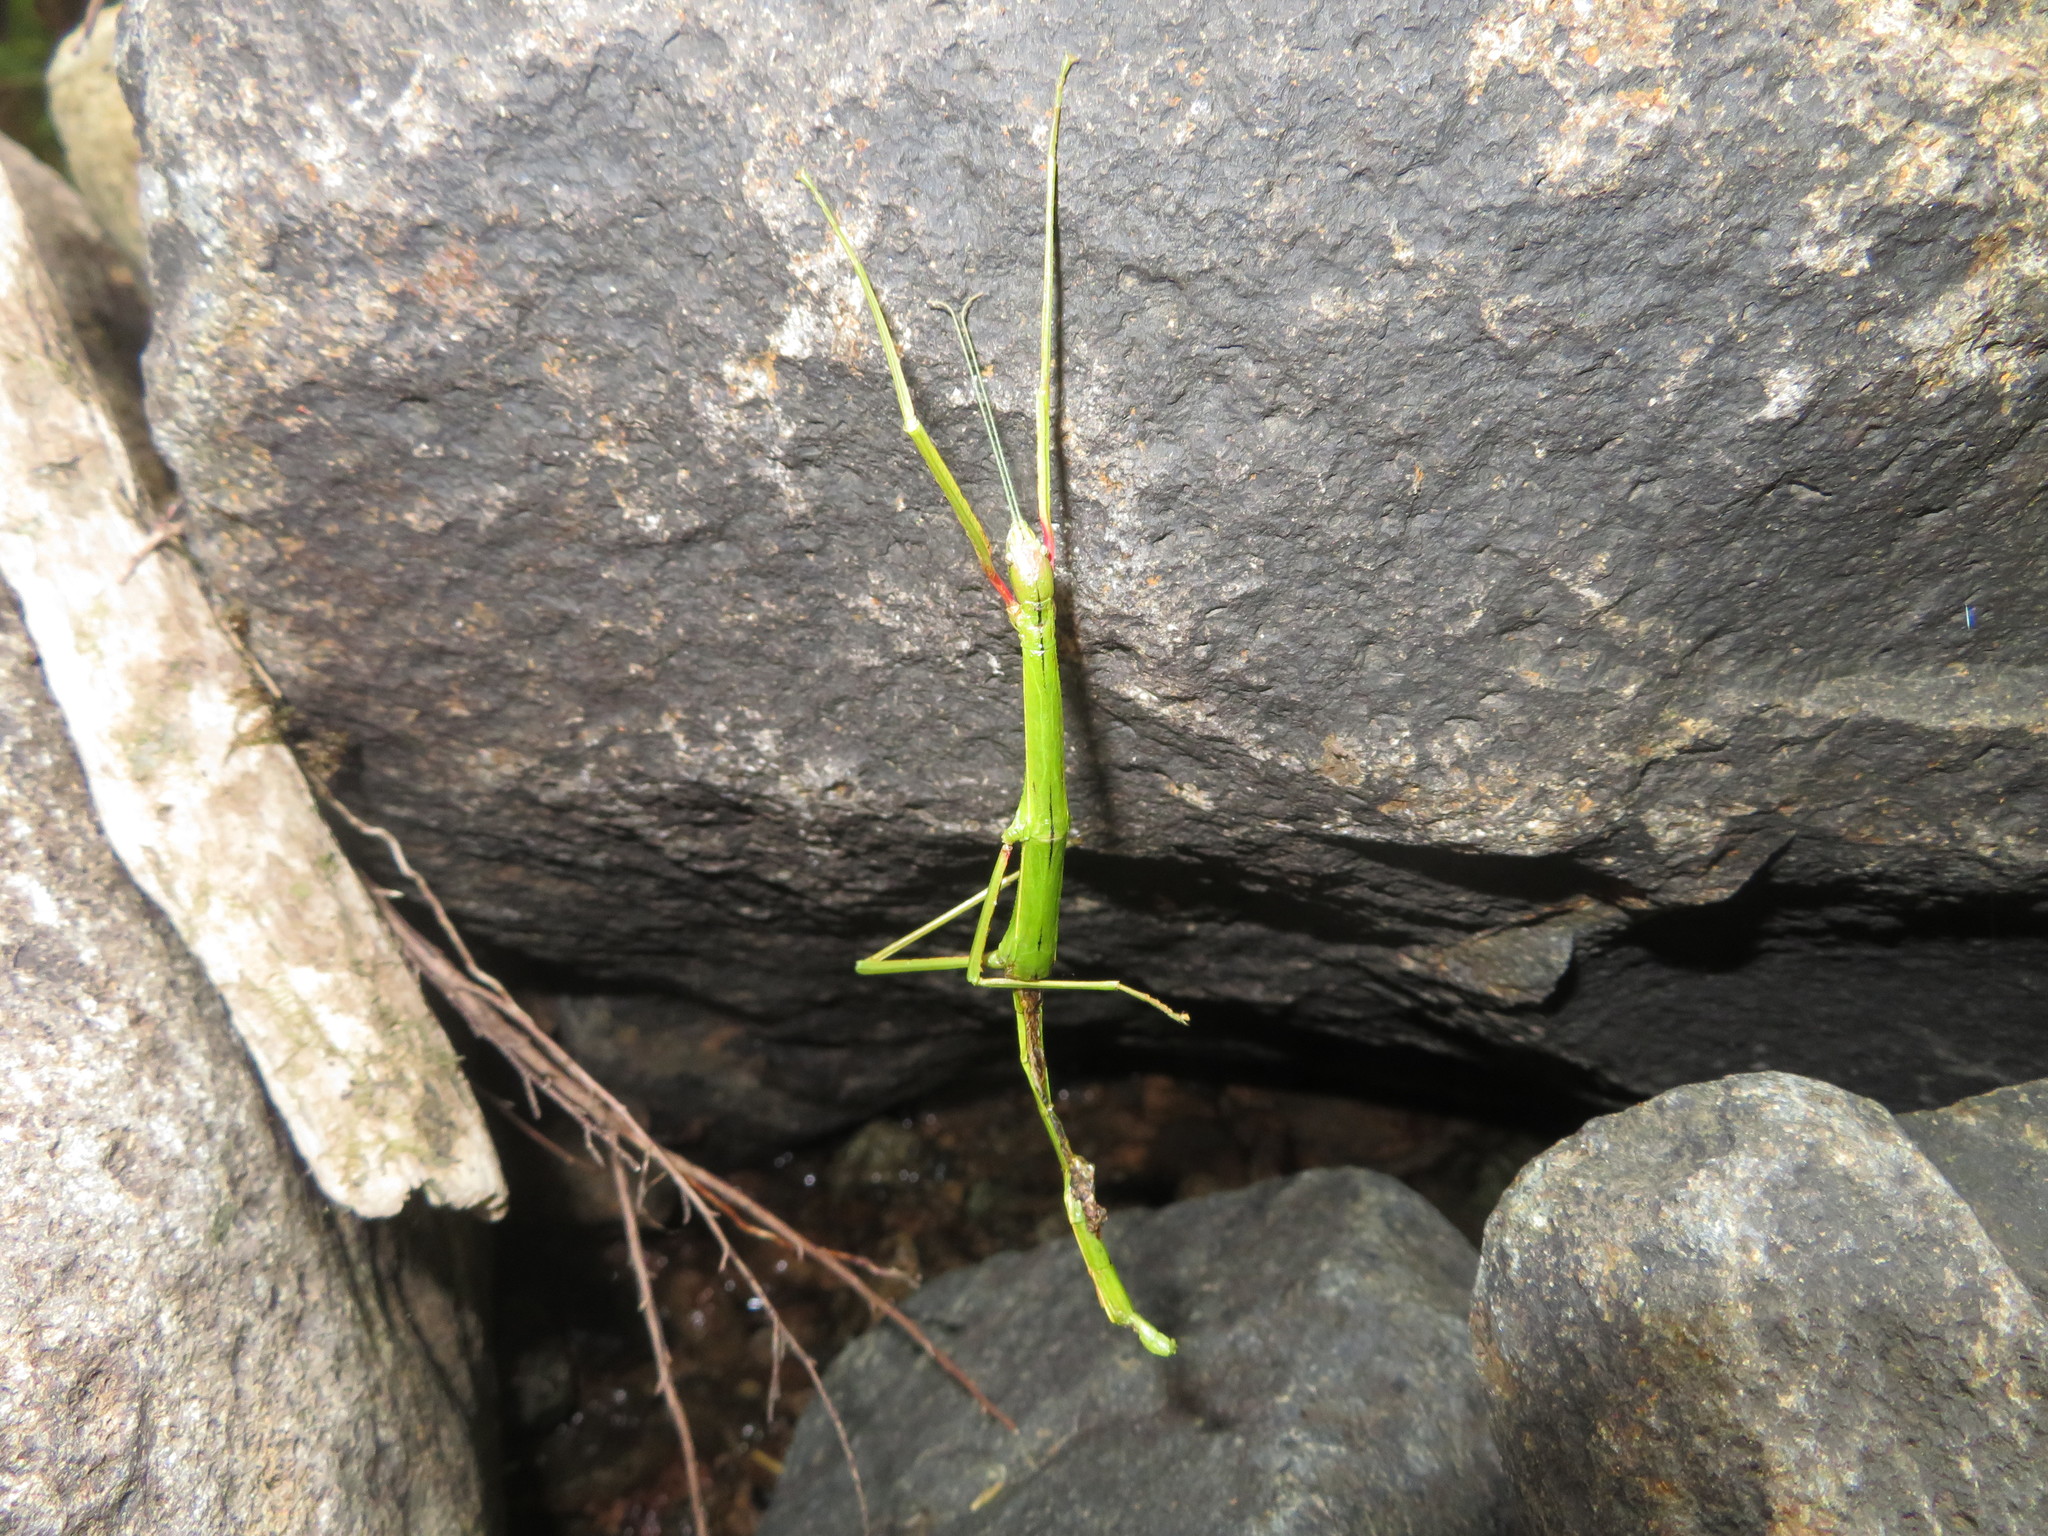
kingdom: Animalia
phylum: Arthropoda
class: Insecta
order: Phasmida
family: Phasmatidae
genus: Clitarchus
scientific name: Clitarchus hookeri
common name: Smooth stick insect
